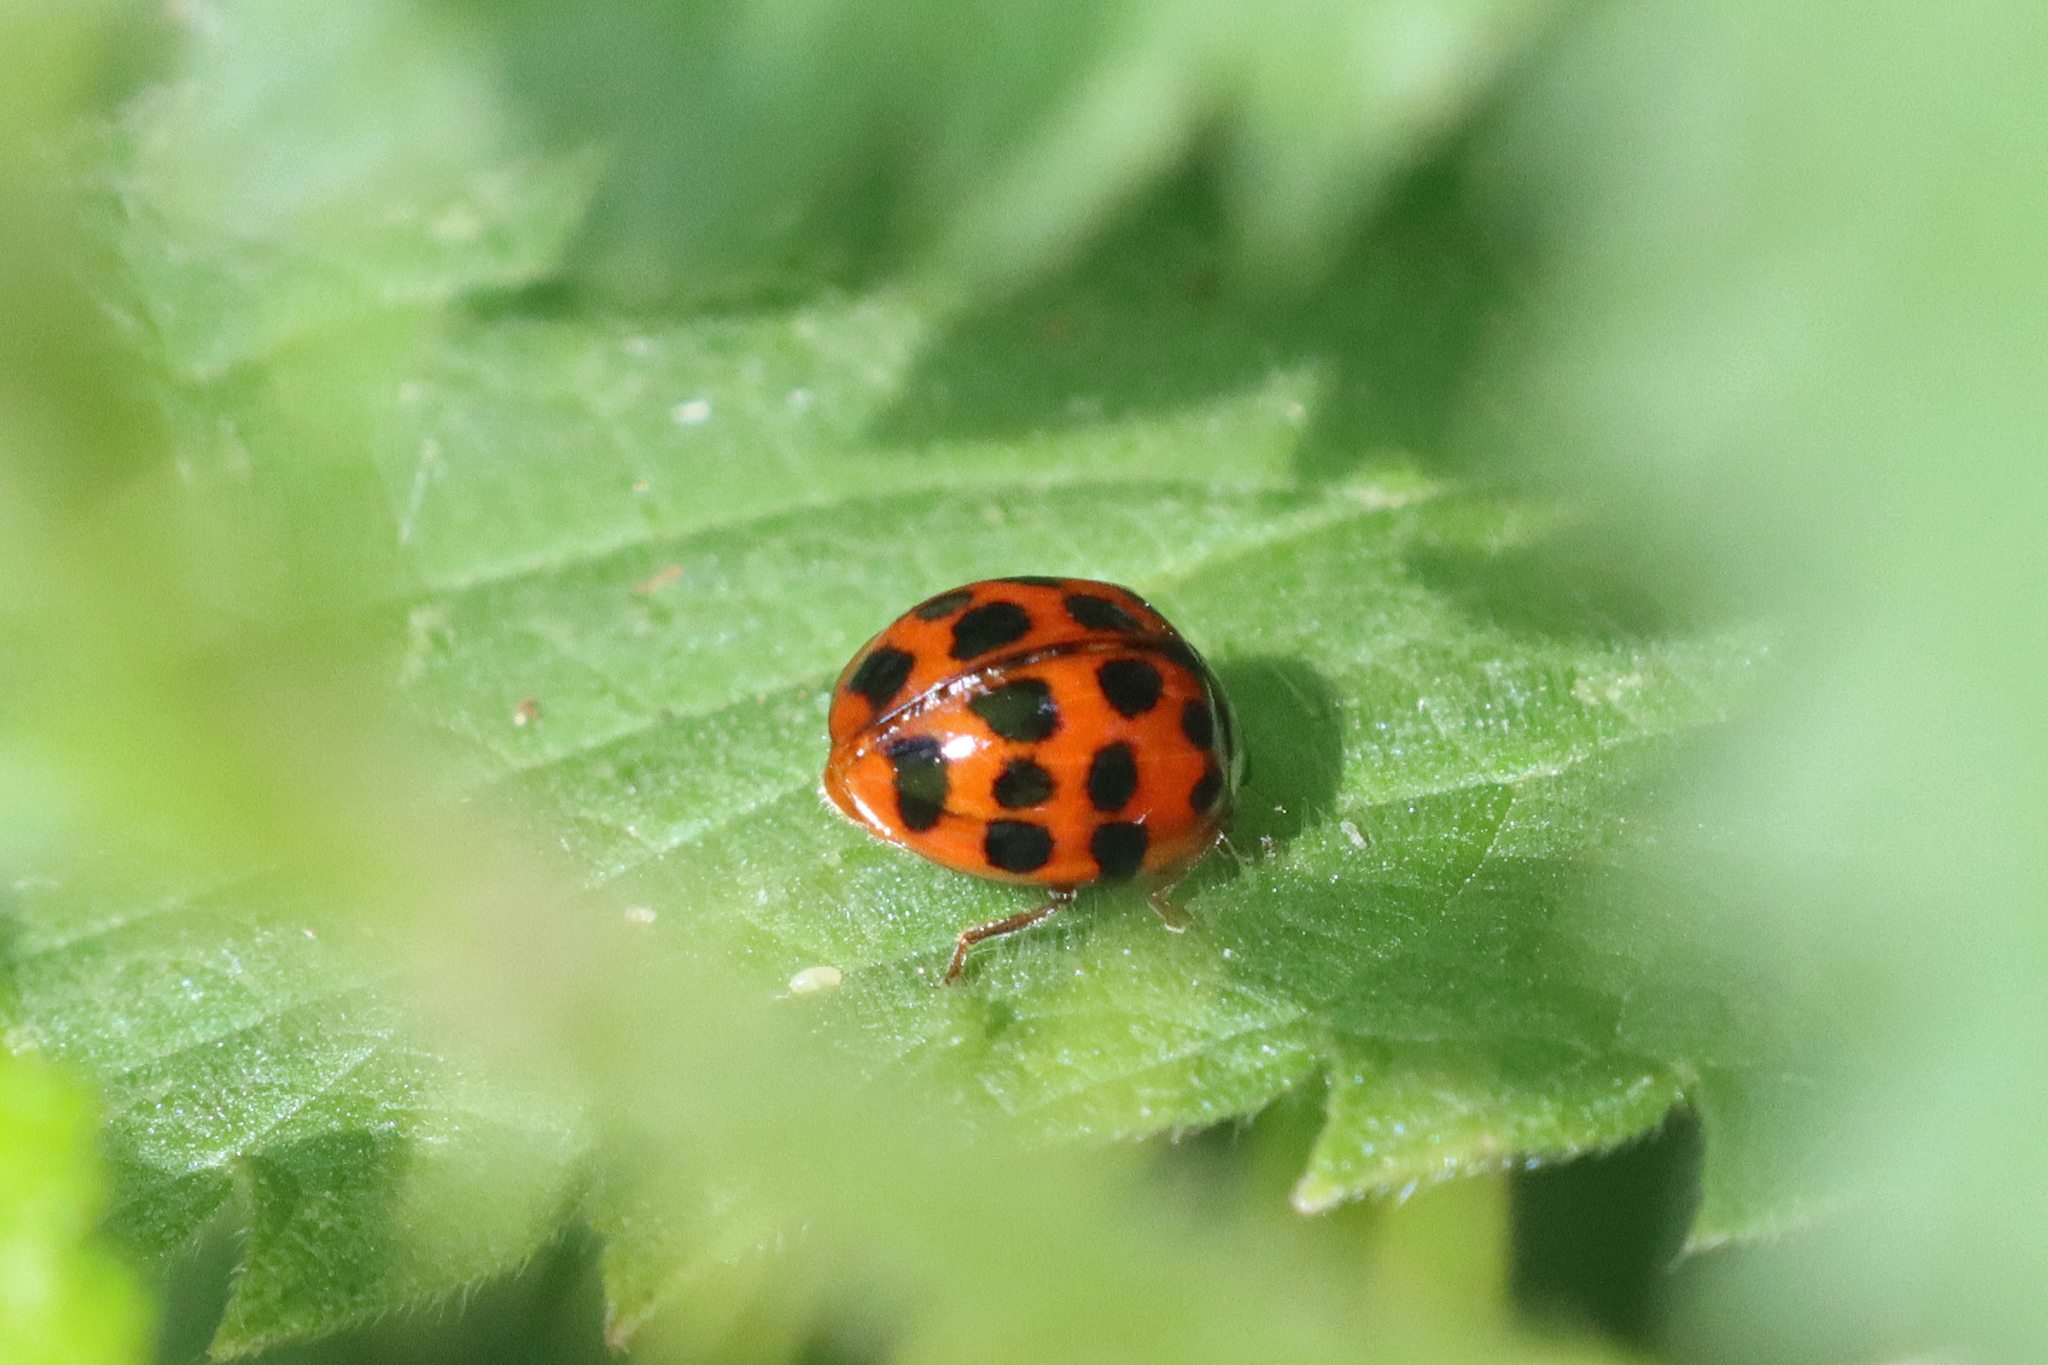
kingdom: Animalia
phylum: Arthropoda
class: Insecta
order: Coleoptera
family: Coccinellidae
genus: Harmonia
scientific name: Harmonia axyridis
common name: Harlequin ladybird
